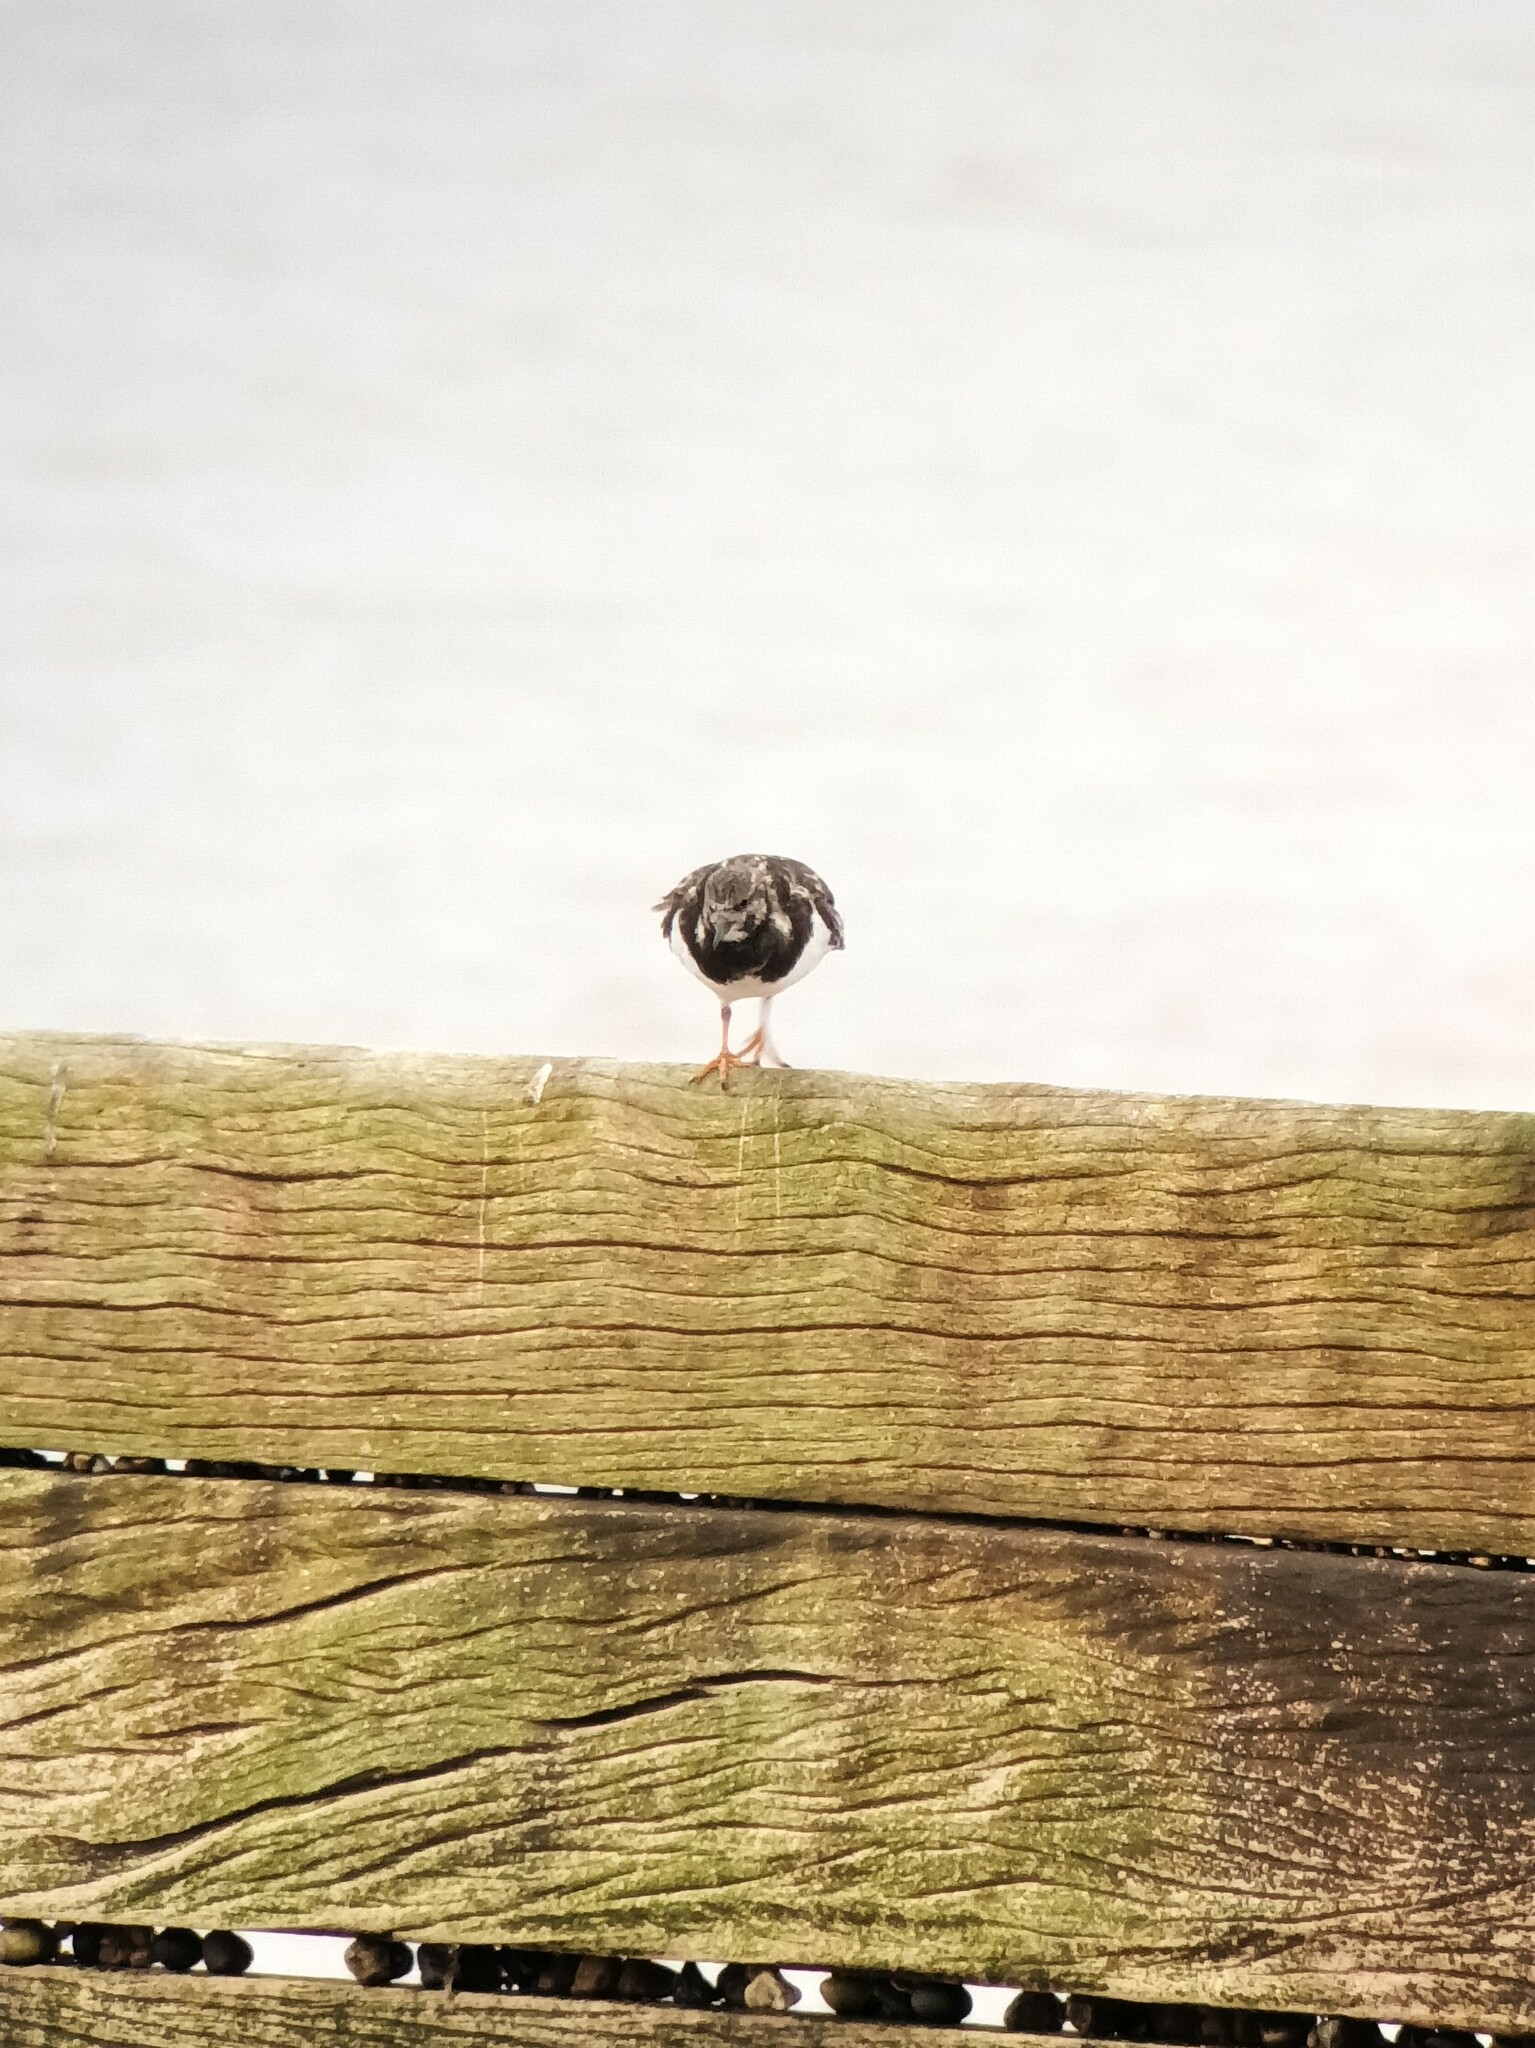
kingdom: Animalia
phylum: Chordata
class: Aves
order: Charadriiformes
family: Scolopacidae
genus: Arenaria
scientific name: Arenaria interpres
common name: Ruddy turnstone
